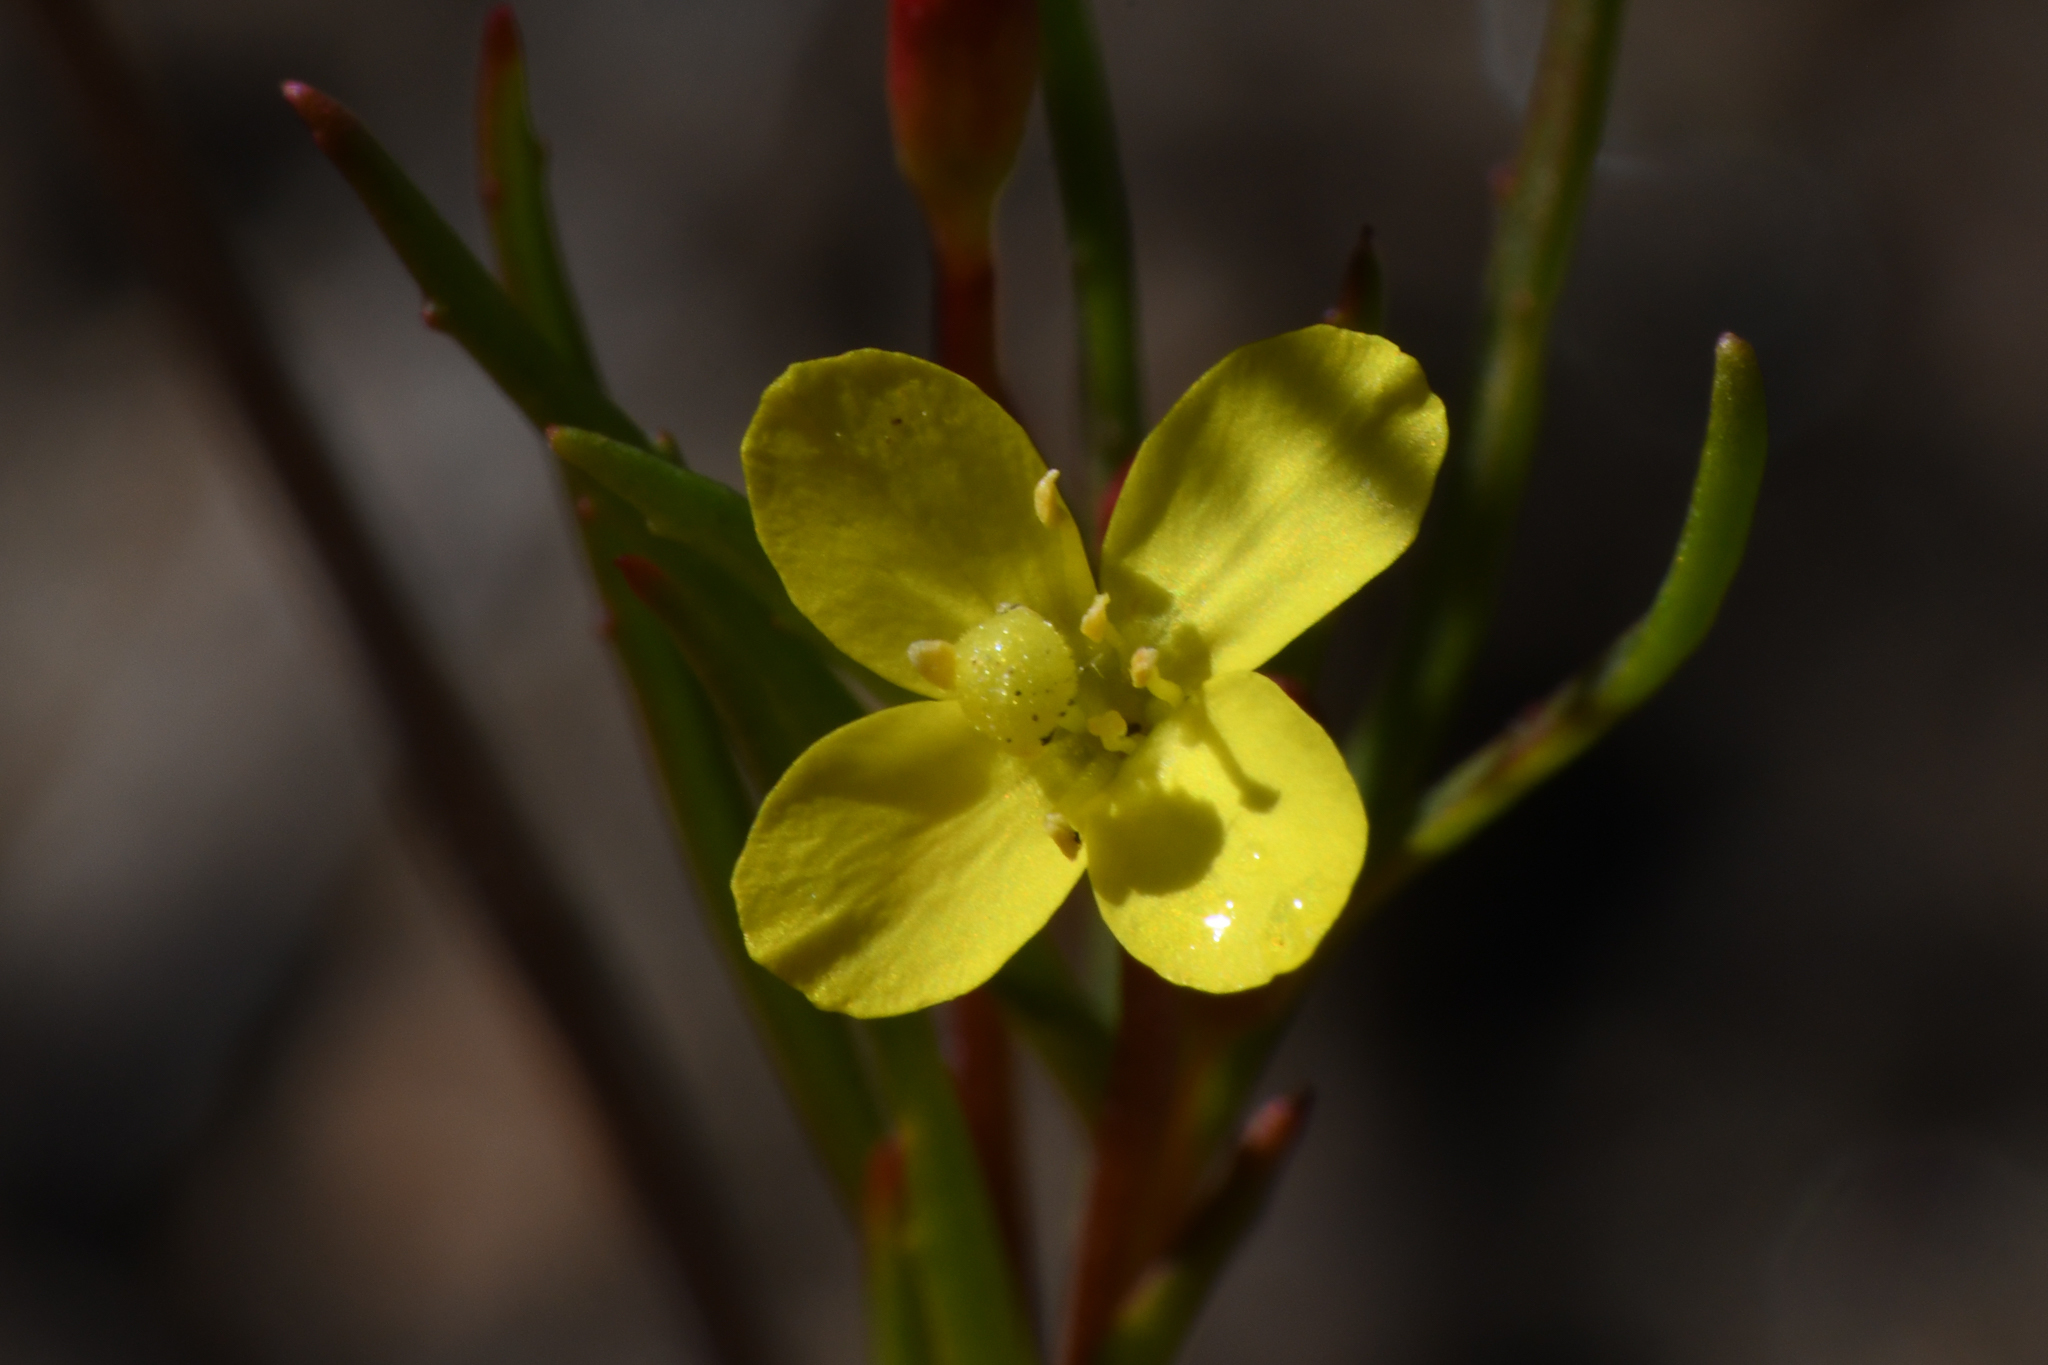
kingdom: Plantae
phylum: Tracheophyta
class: Magnoliopsida
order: Myrtales
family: Onagraceae
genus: Camissonia
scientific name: Camissonia strigulosa
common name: Contorted-primrose
